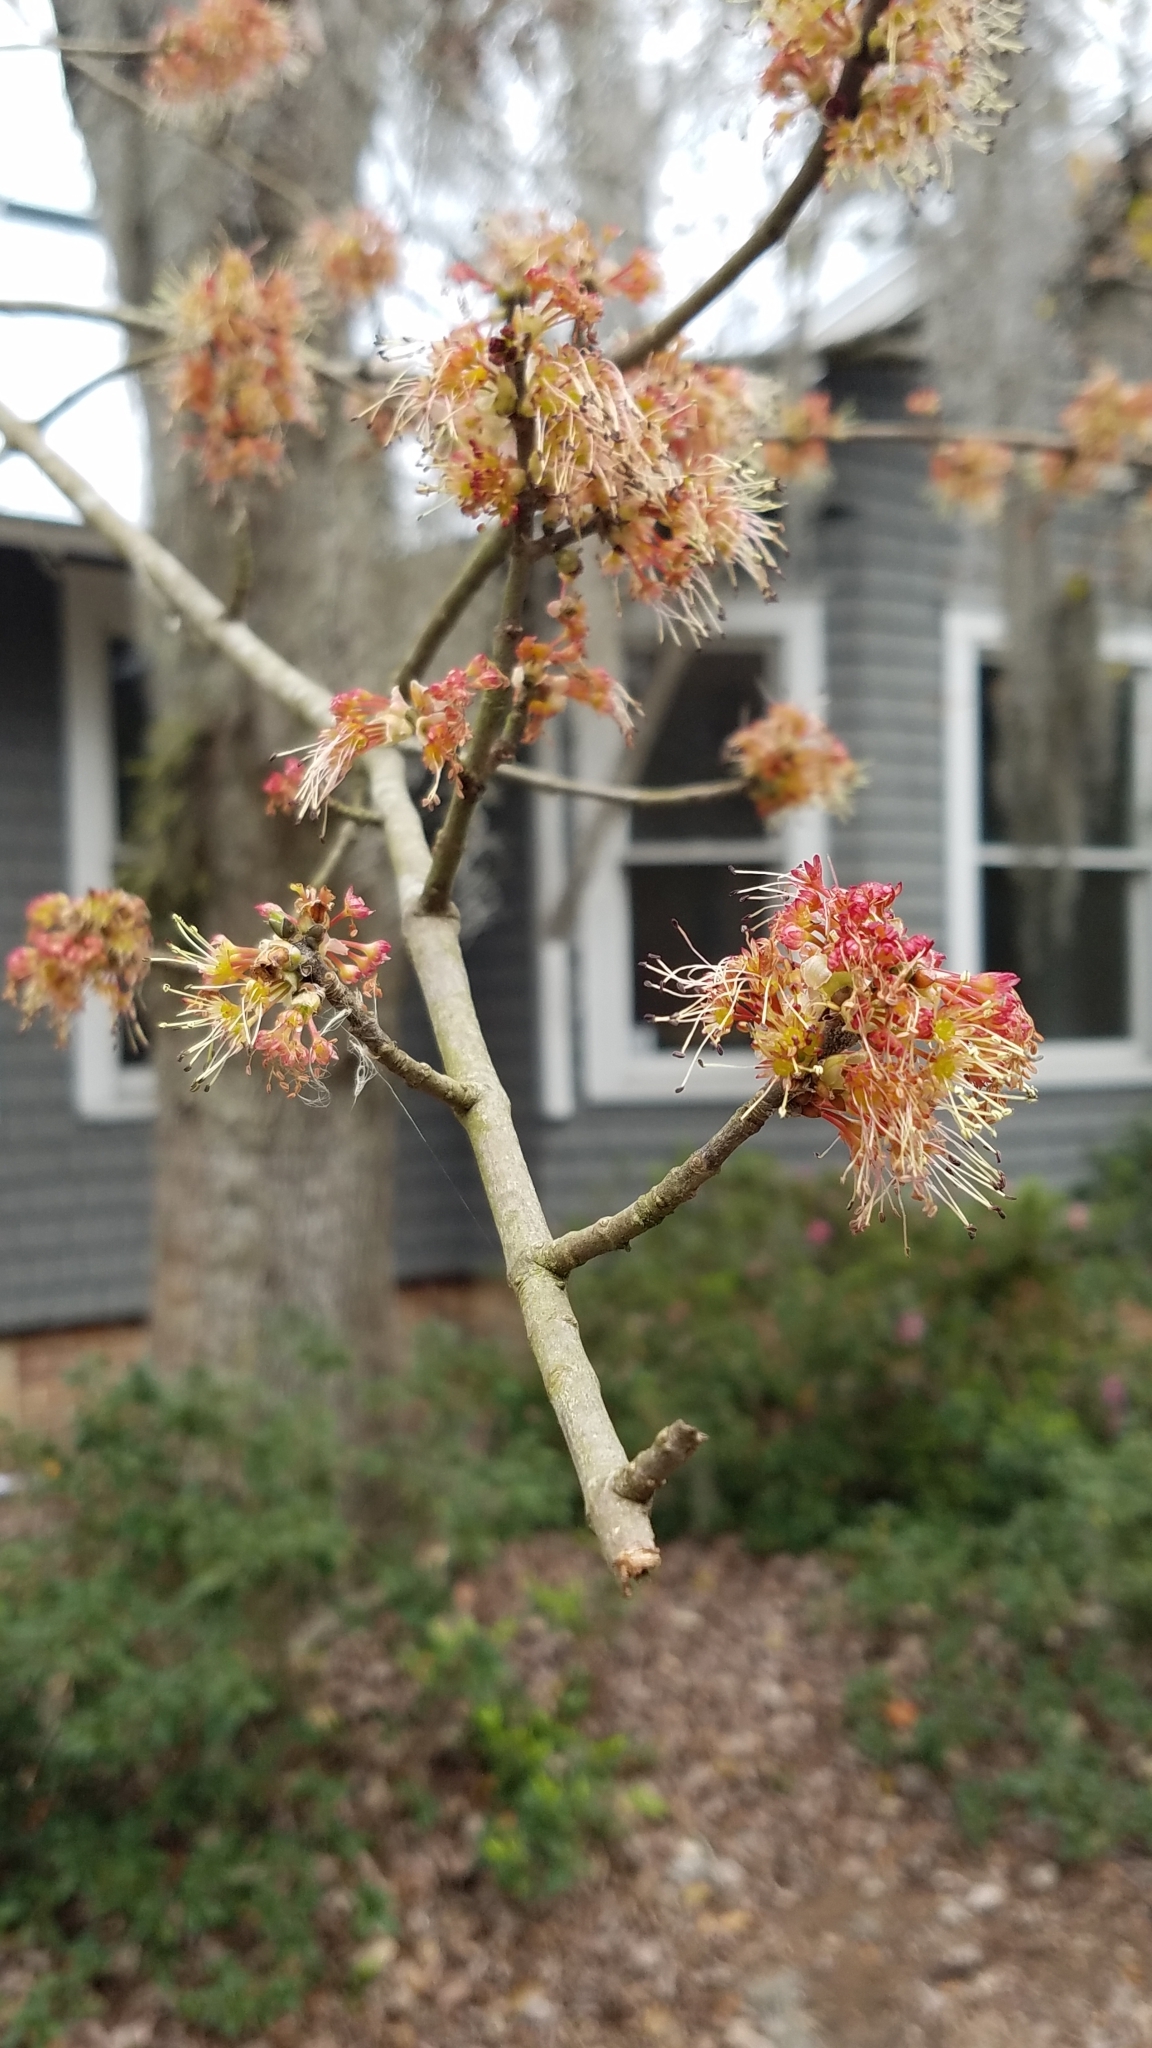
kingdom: Plantae
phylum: Tracheophyta
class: Magnoliopsida
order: Sapindales
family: Sapindaceae
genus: Acer
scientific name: Acer rubrum
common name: Red maple
